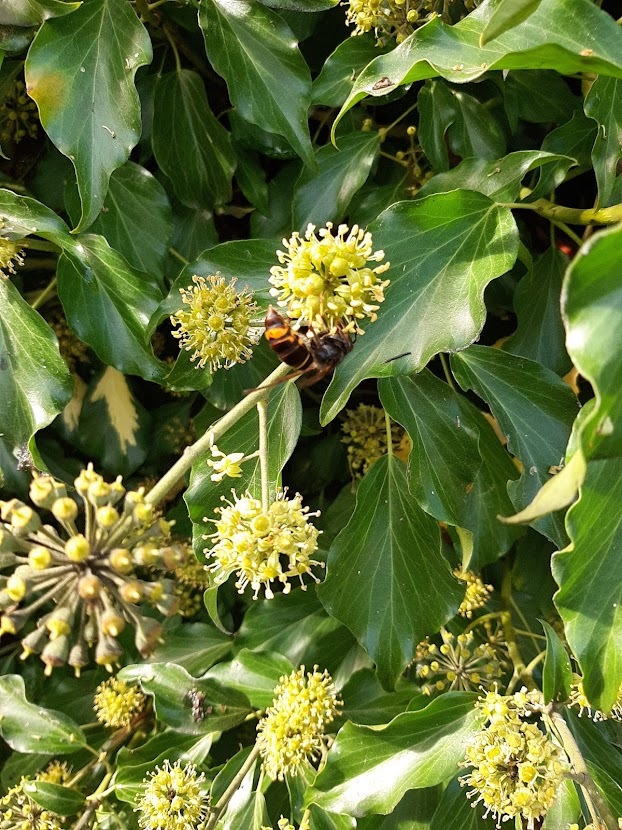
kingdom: Animalia
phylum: Arthropoda
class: Insecta
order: Hymenoptera
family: Vespidae
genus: Vespa
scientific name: Vespa velutina
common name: Asian hornet
